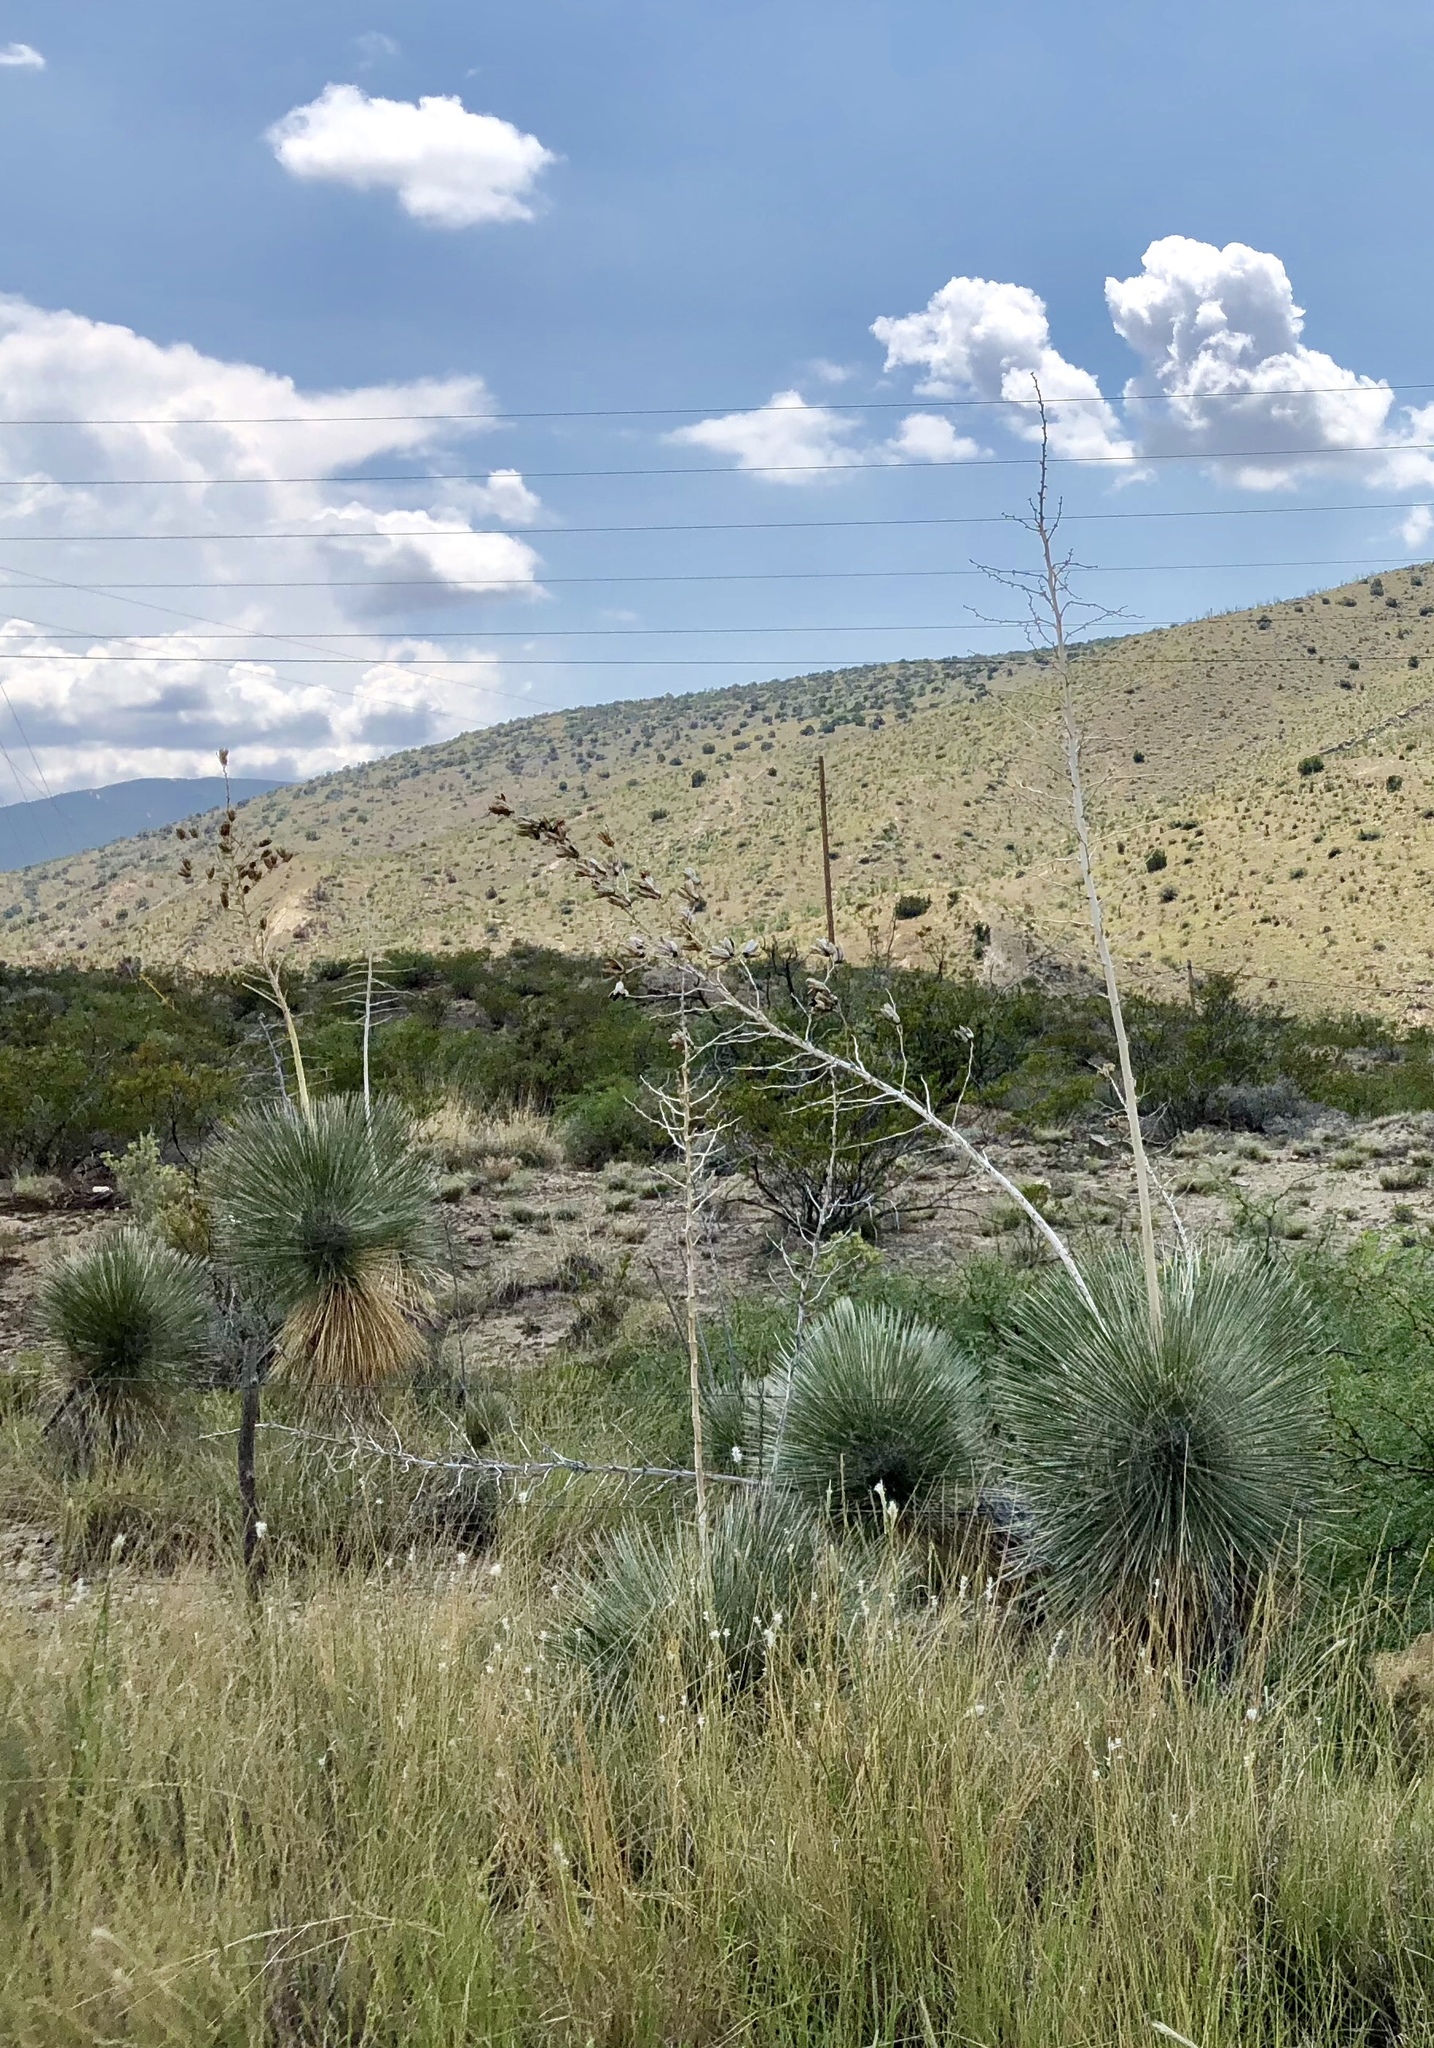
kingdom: Plantae
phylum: Tracheophyta
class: Liliopsida
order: Asparagales
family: Asparagaceae
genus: Yucca
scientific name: Yucca elata
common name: Palmella
